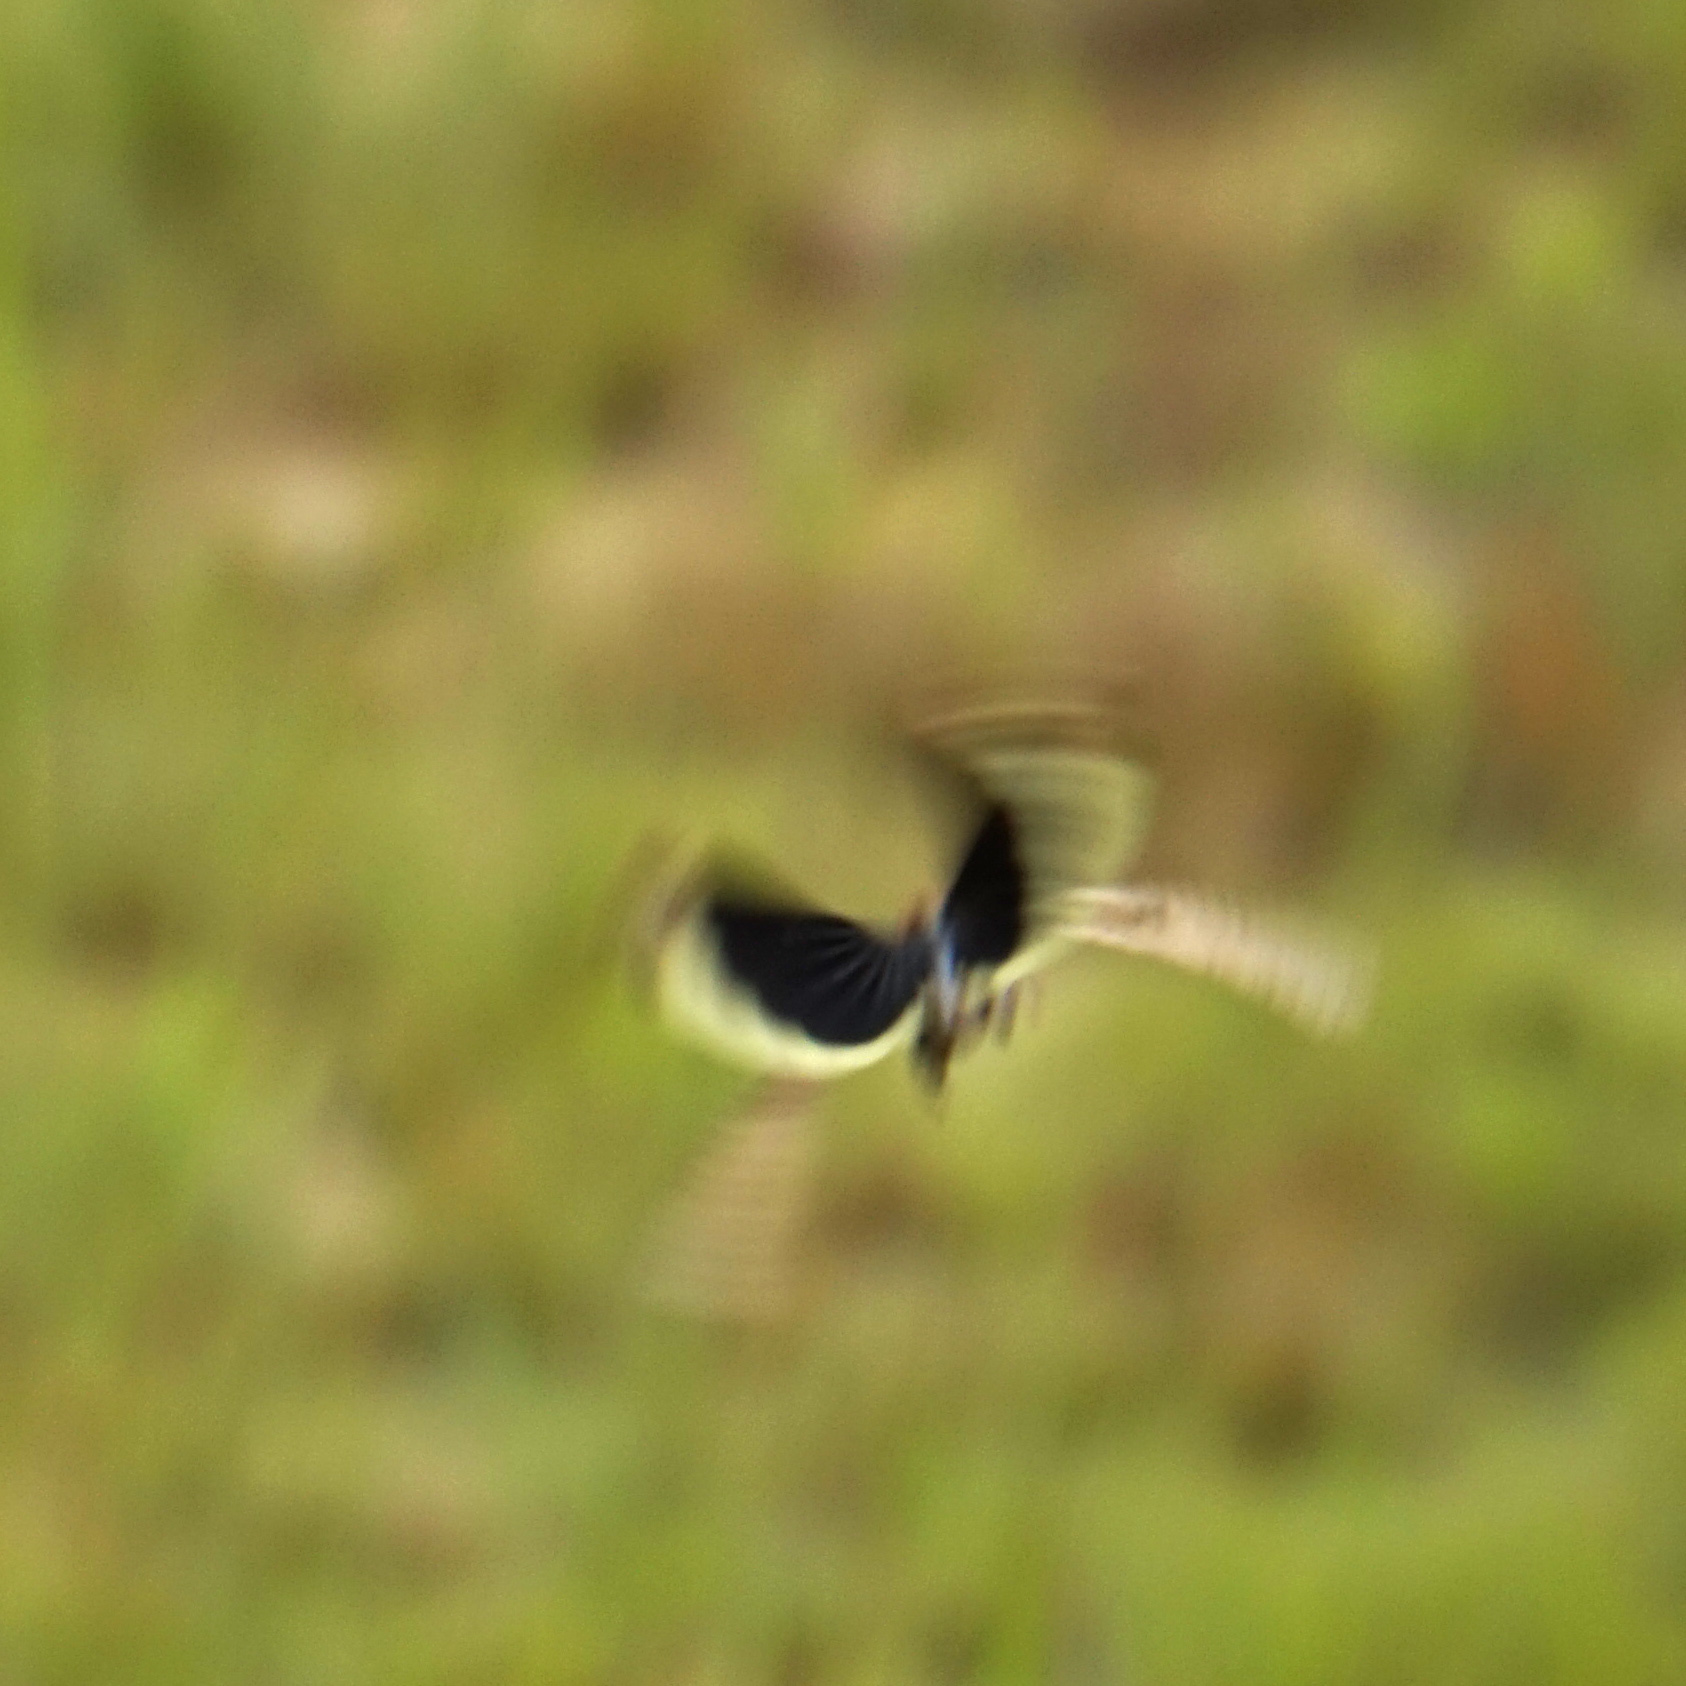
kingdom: Animalia
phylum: Arthropoda
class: Insecta
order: Orthoptera
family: Acrididae
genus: Dissosteira
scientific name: Dissosteira carolina
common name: Carolina grasshopper
